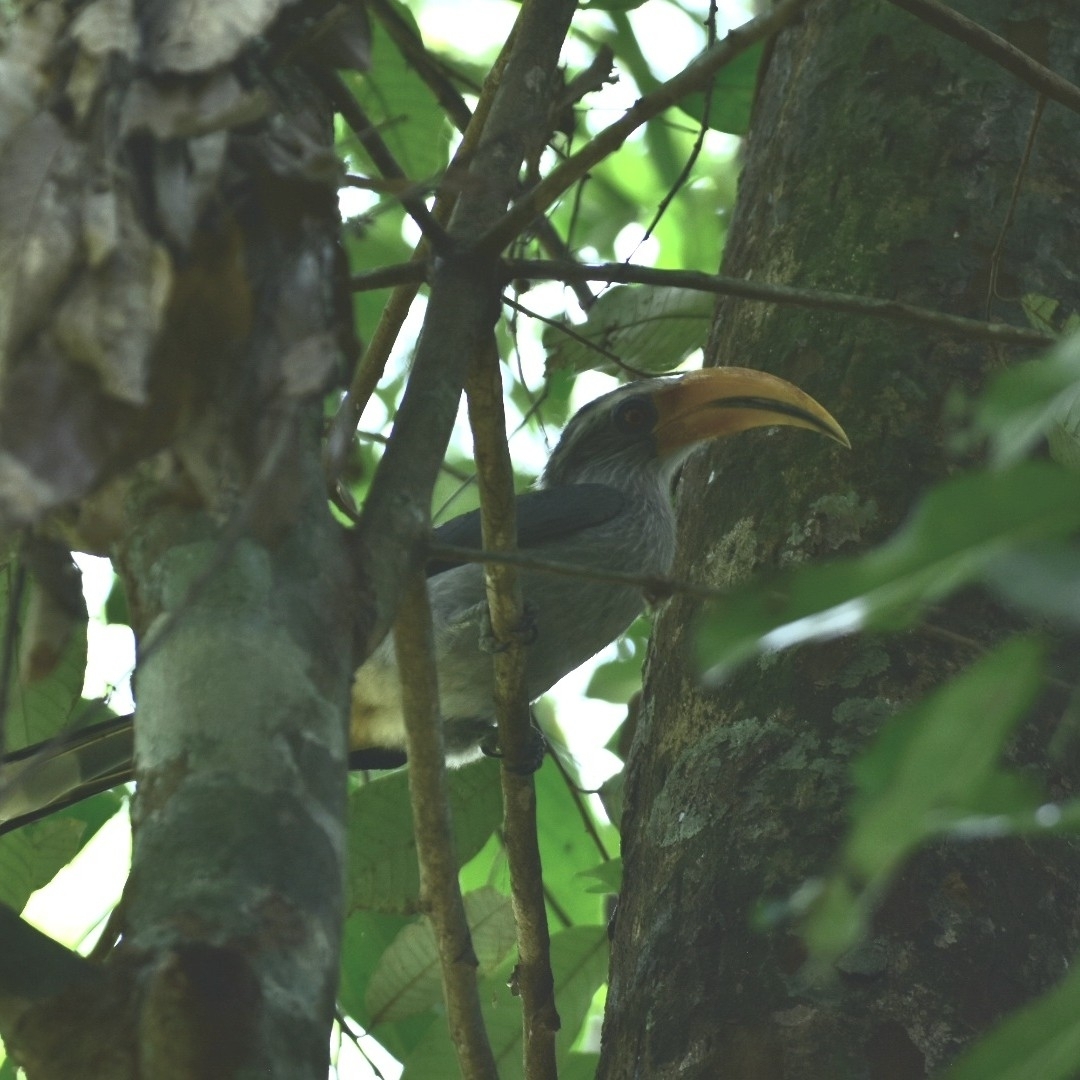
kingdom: Animalia
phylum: Chordata
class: Aves
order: Bucerotiformes
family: Bucerotidae
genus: Ocyceros
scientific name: Ocyceros griseus
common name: Malabar grey hornbill
